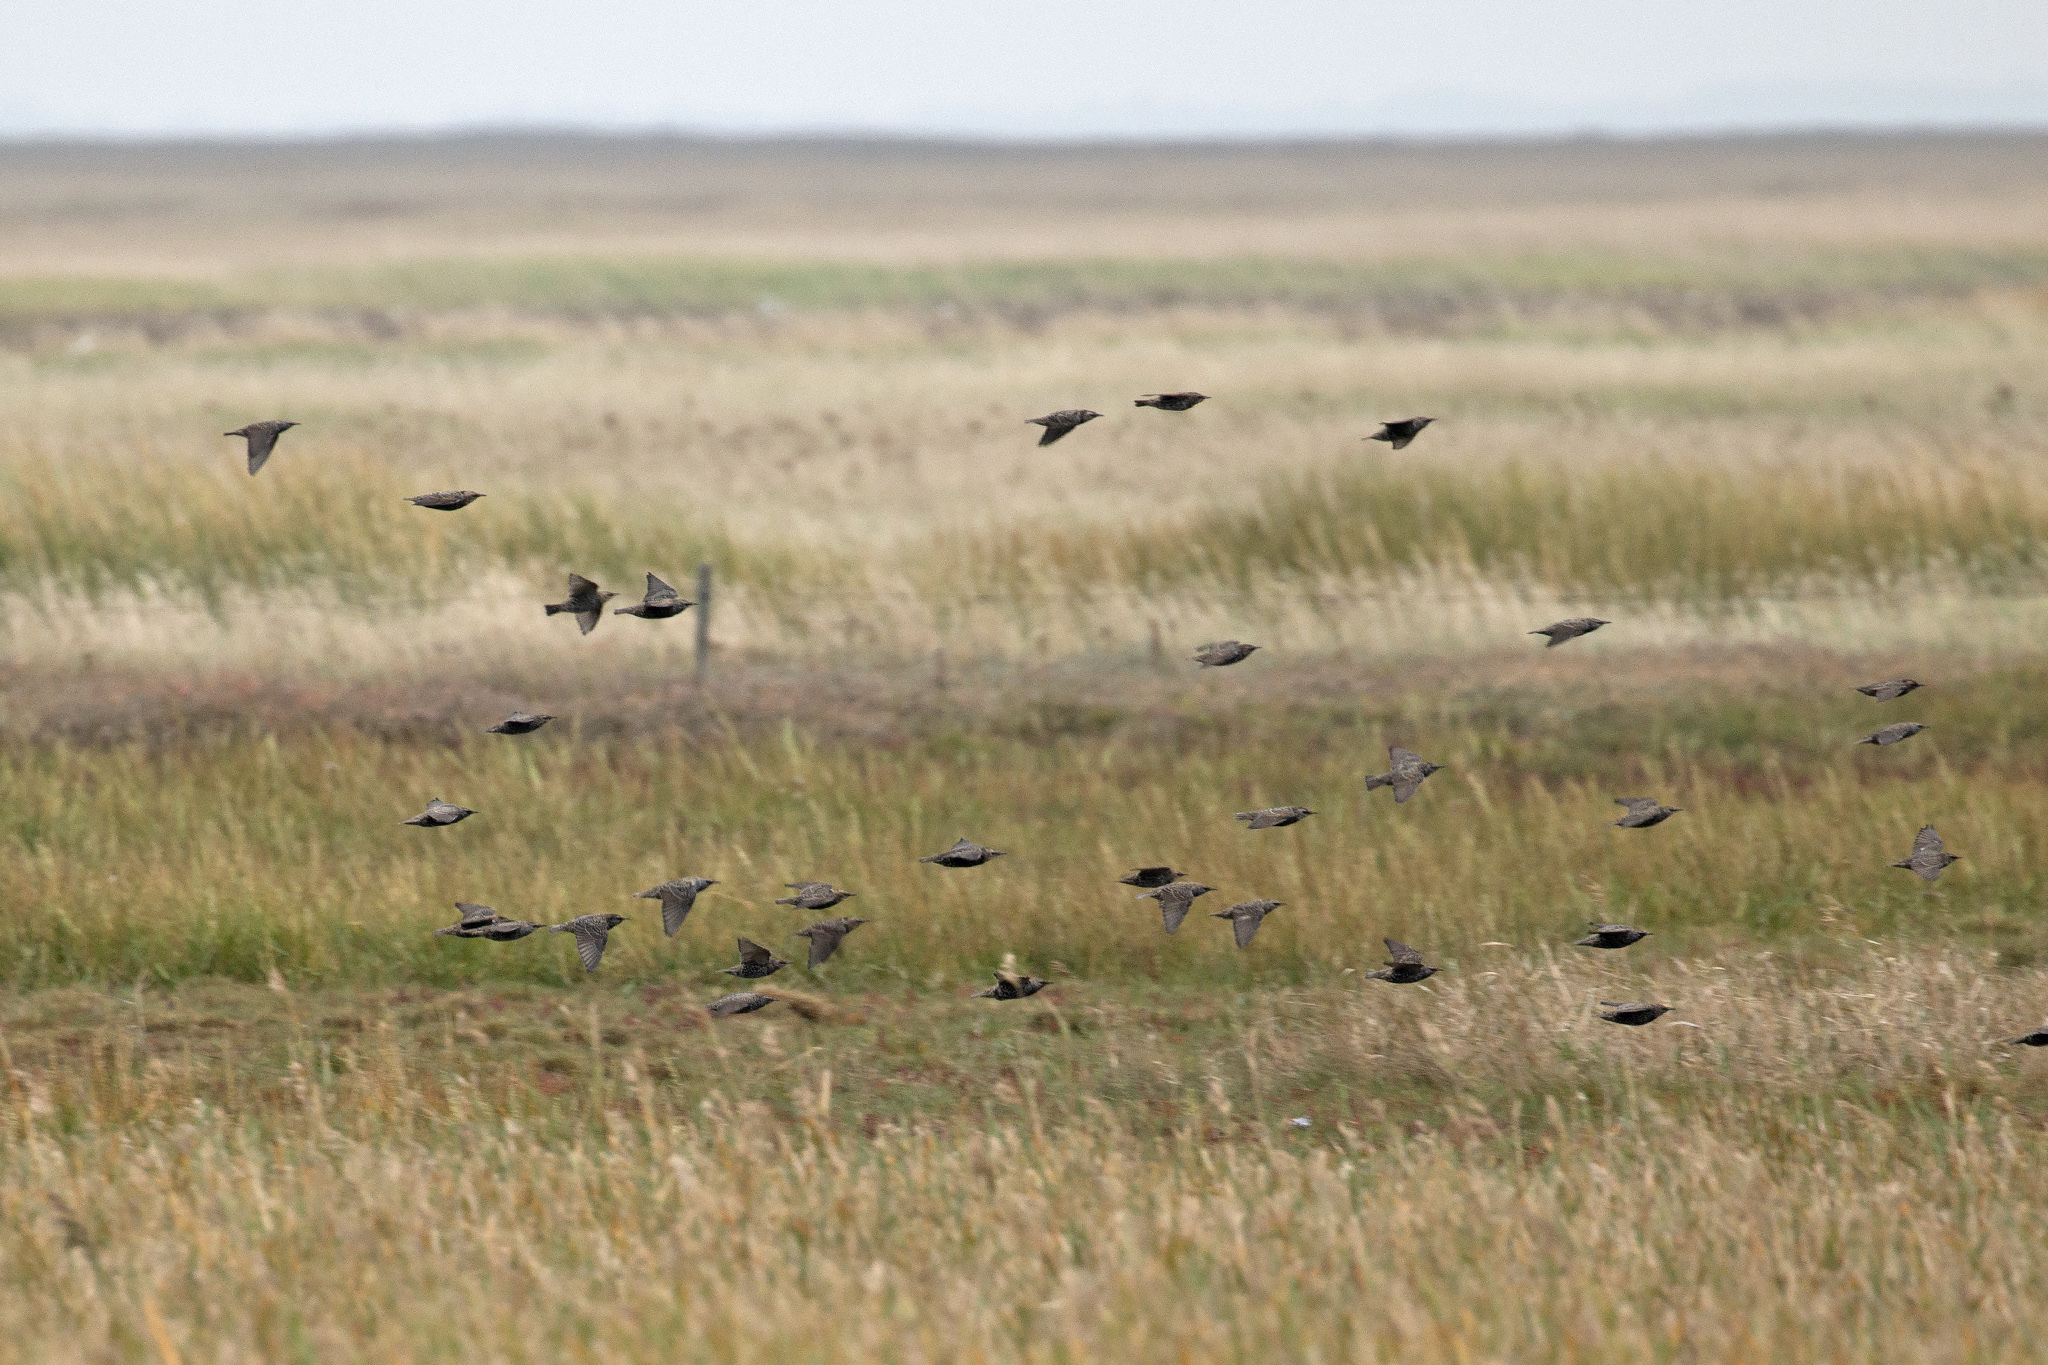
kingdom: Animalia
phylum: Chordata
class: Aves
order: Passeriformes
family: Sturnidae
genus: Sturnus
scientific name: Sturnus vulgaris
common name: Common starling
